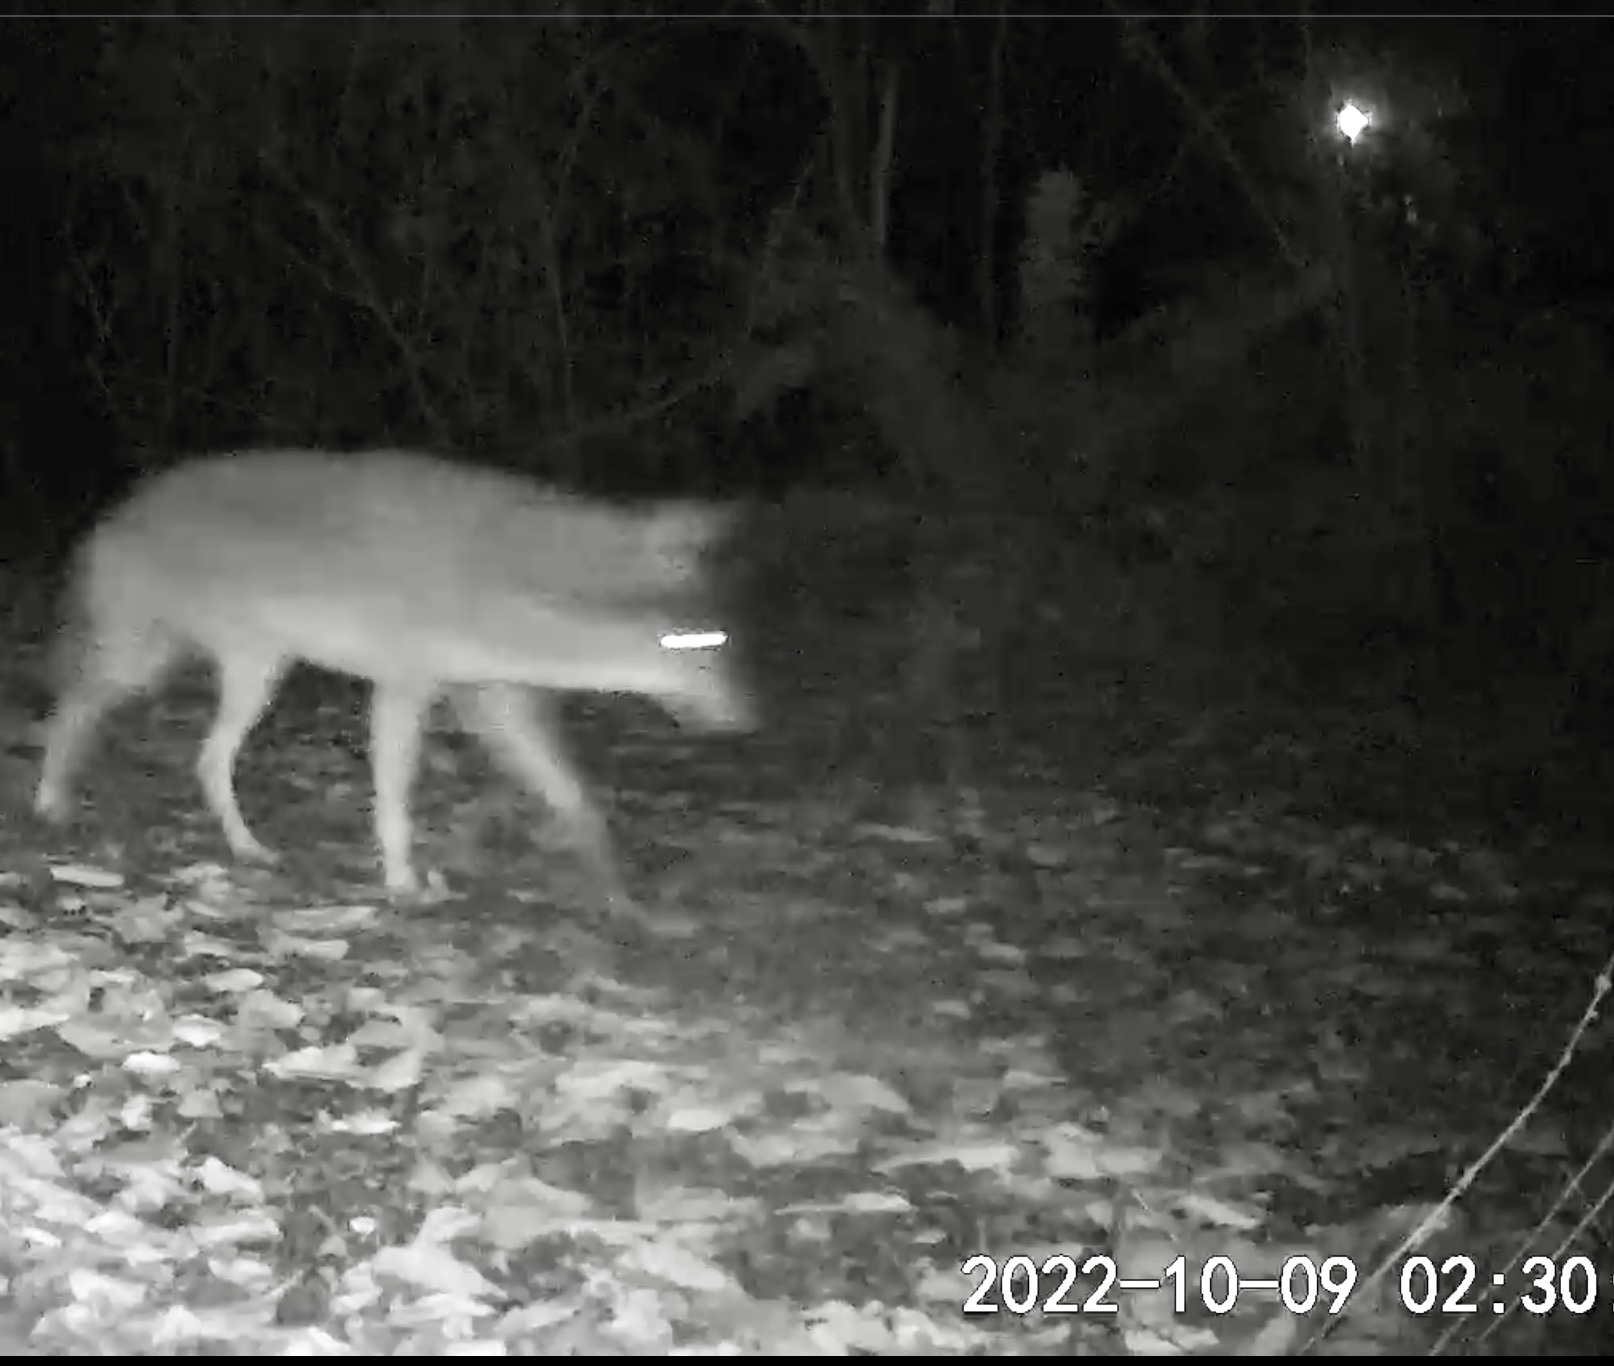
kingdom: Animalia
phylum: Chordata
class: Mammalia
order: Carnivora
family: Canidae
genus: Canis
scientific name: Canis latrans
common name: Coyote
